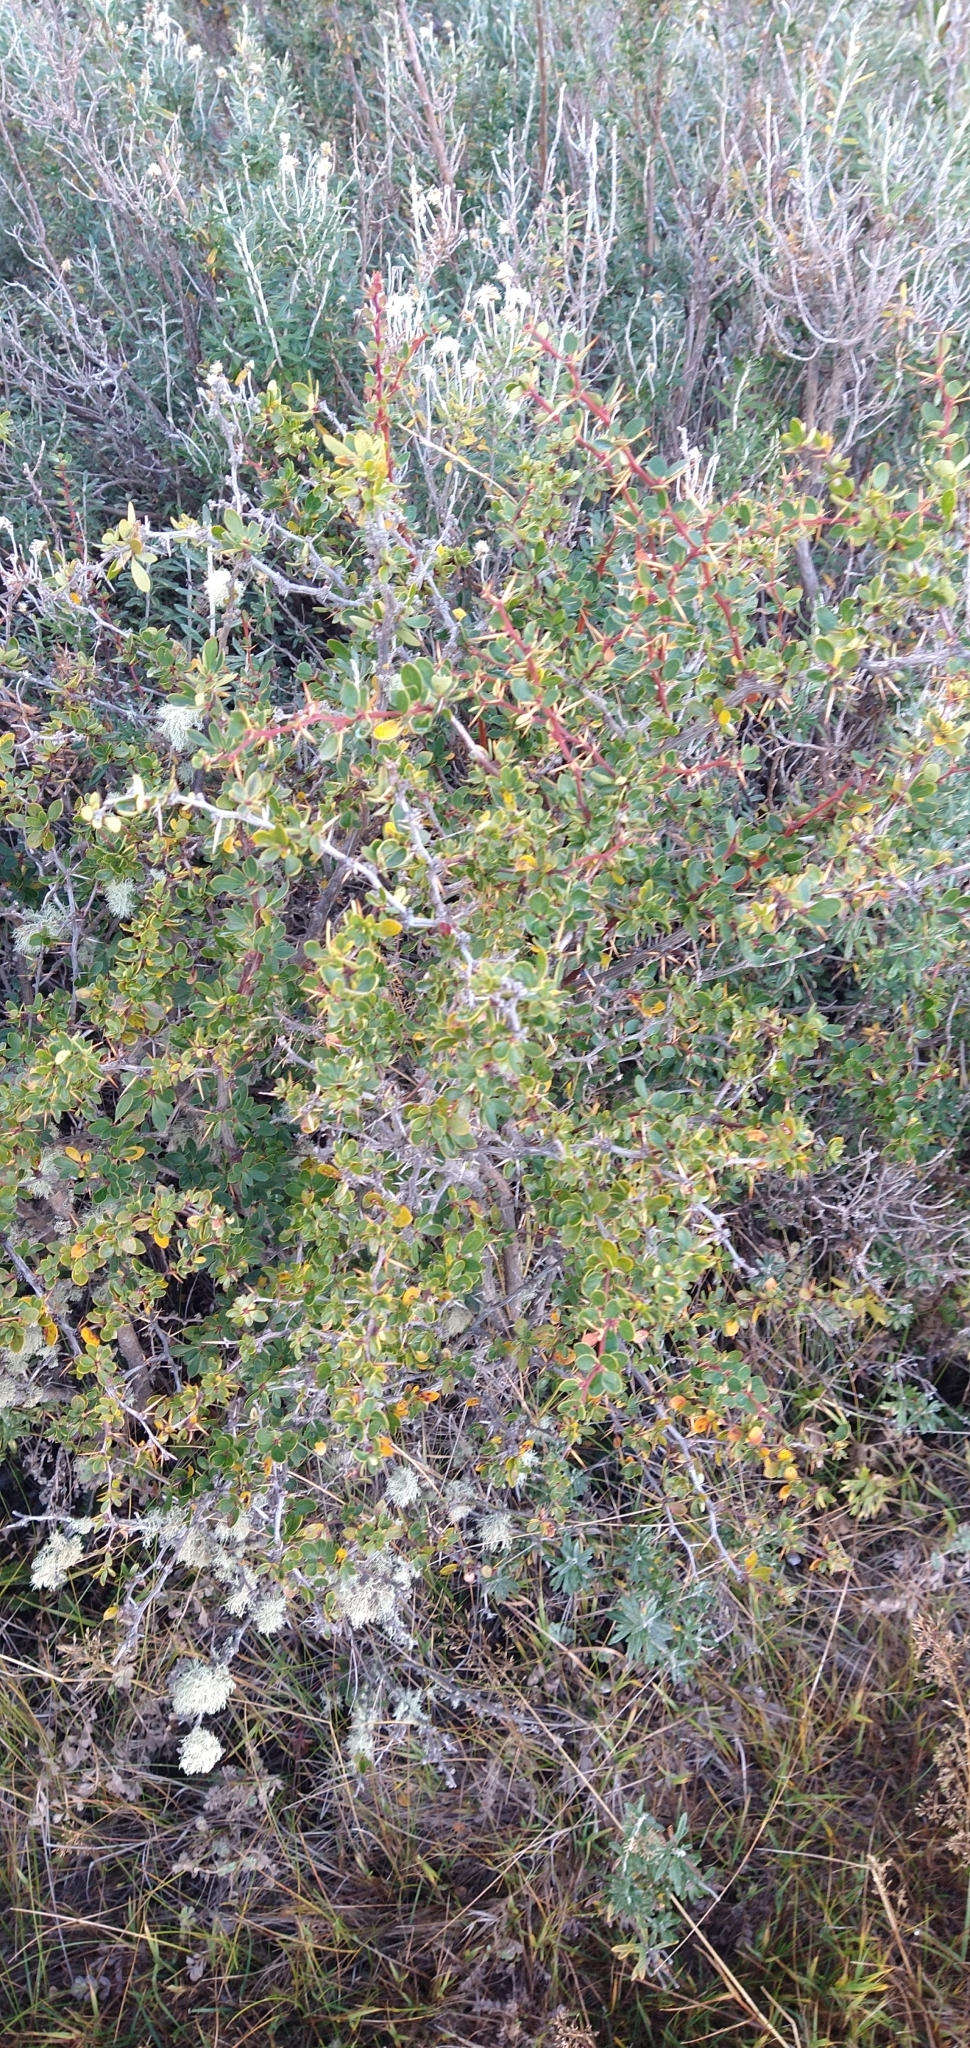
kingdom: Plantae
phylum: Tracheophyta
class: Magnoliopsida
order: Ranunculales
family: Berberidaceae
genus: Berberis
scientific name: Berberis microphylla
